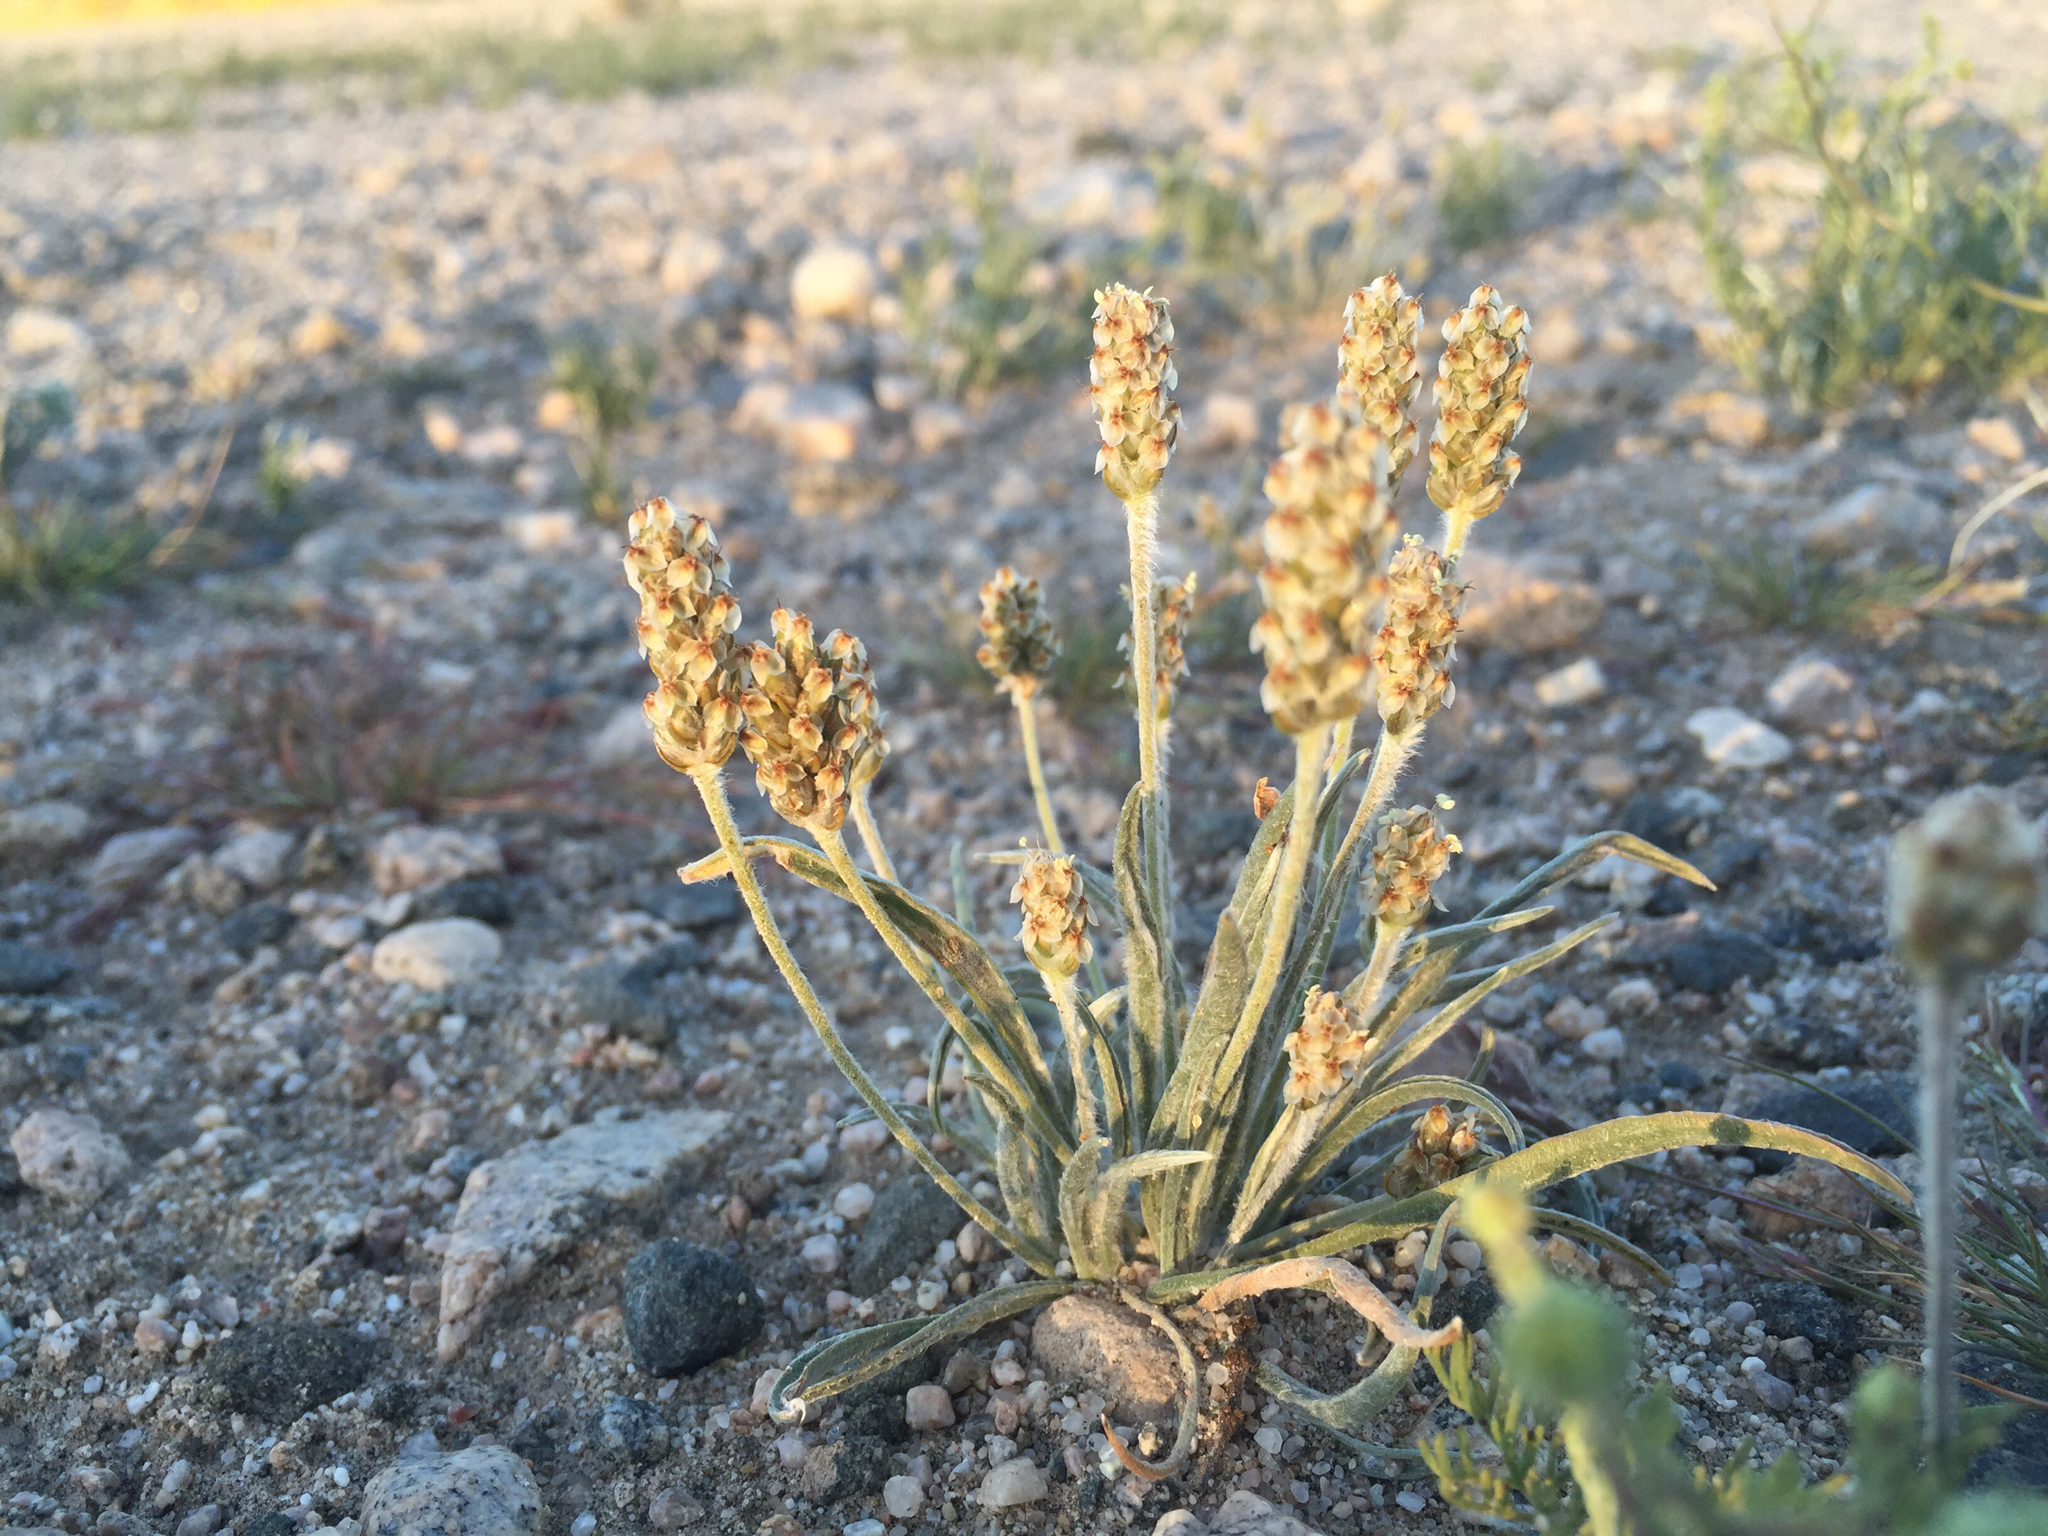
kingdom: Plantae
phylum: Tracheophyta
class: Magnoliopsida
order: Lamiales
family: Plantaginaceae
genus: Plantago
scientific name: Plantago ovata
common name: Blond plantain
